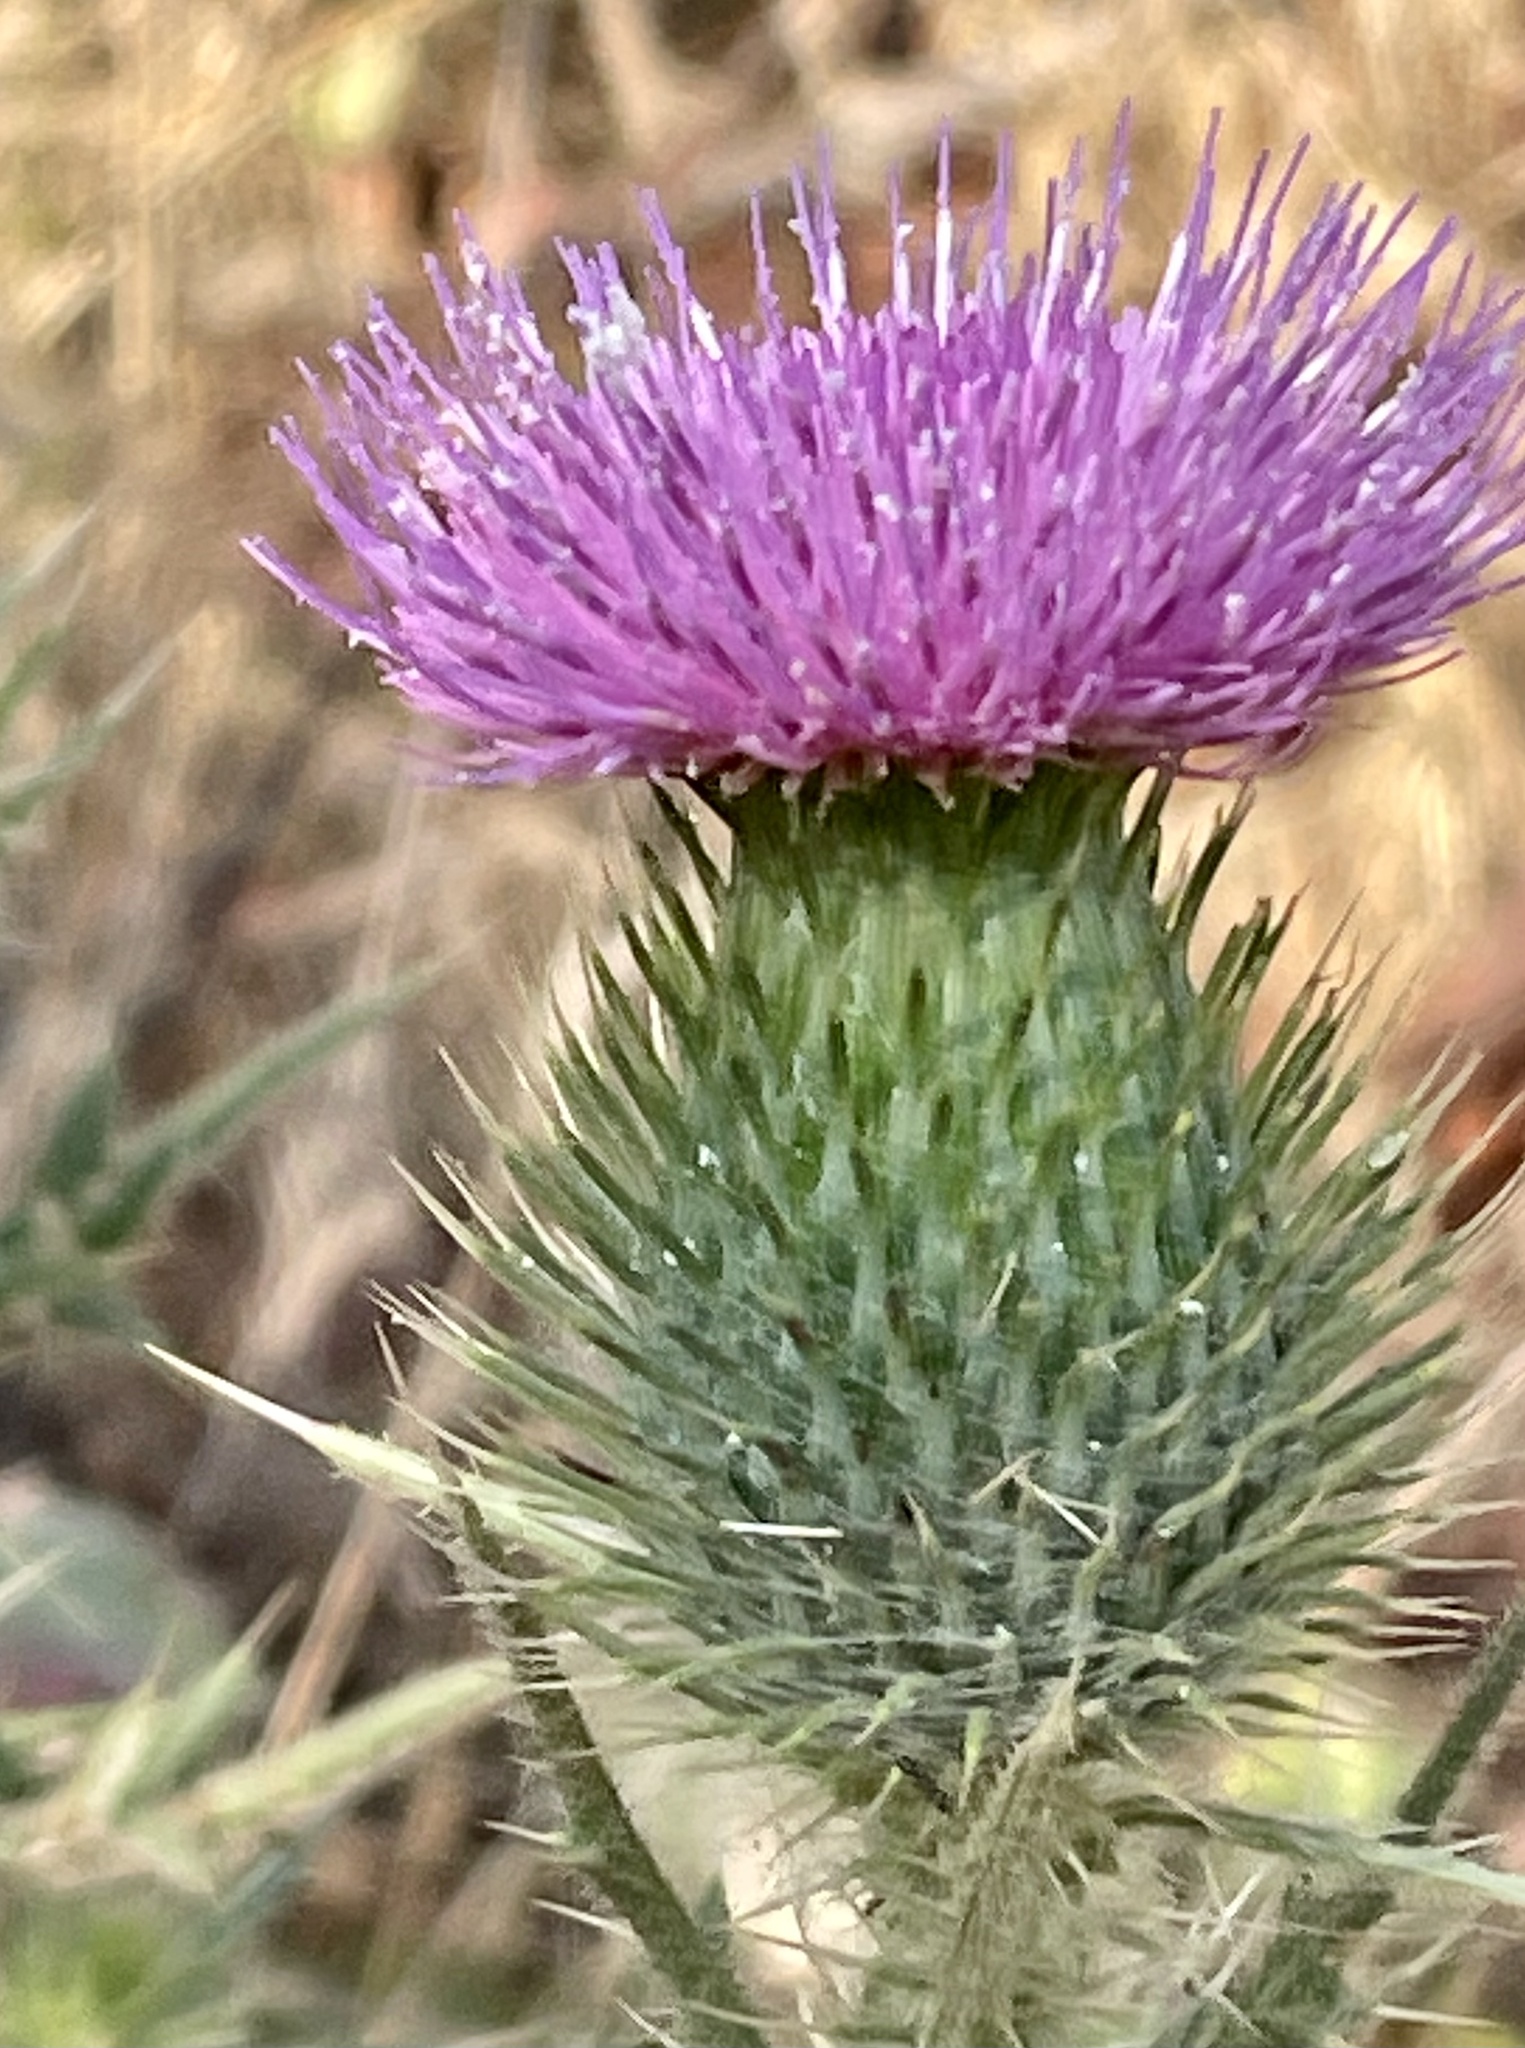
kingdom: Plantae
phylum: Tracheophyta
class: Magnoliopsida
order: Asterales
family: Asteraceae
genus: Cirsium
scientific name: Cirsium vulgare
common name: Bull thistle
